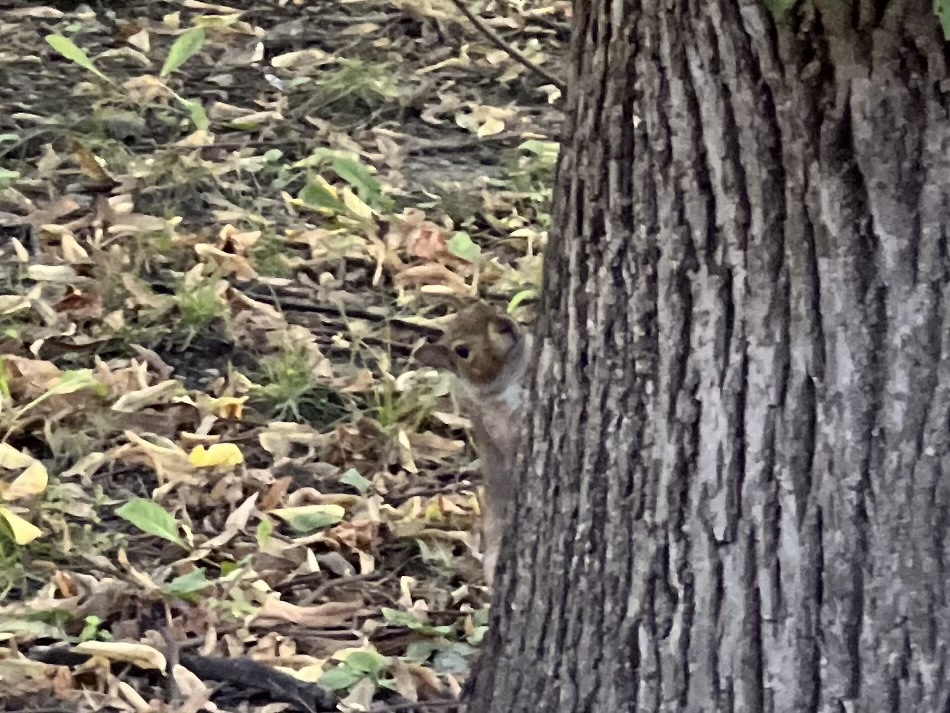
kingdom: Animalia
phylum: Chordata
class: Mammalia
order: Rodentia
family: Sciuridae
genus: Sciurus
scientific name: Sciurus carolinensis
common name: Eastern gray squirrel
